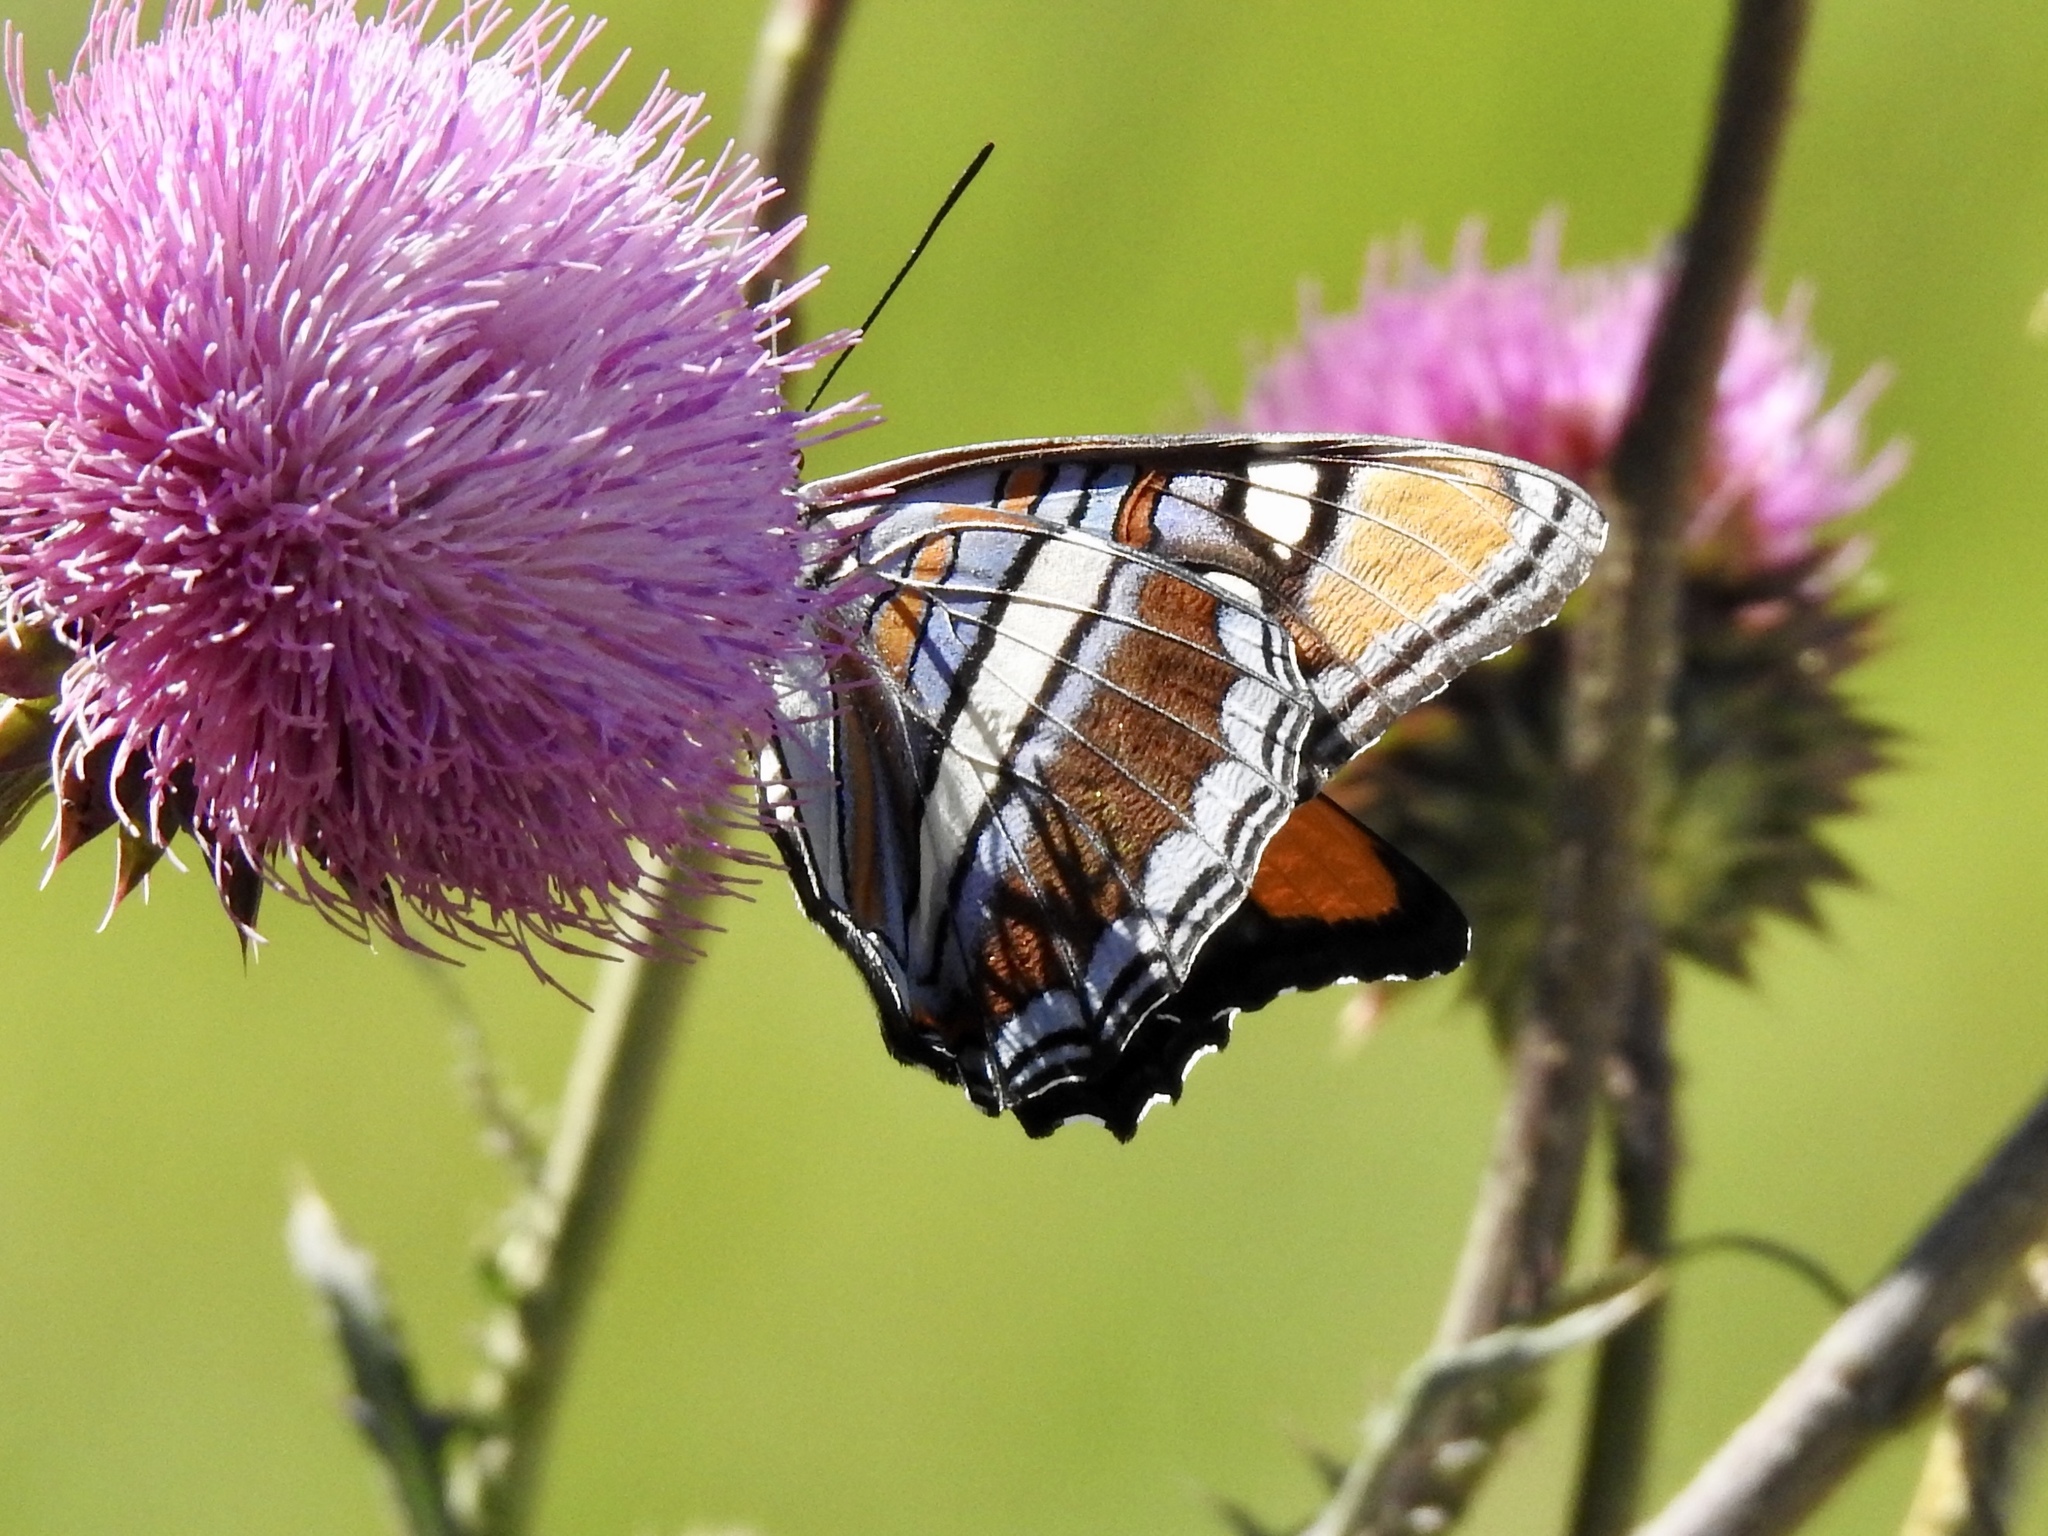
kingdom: Animalia
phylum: Arthropoda
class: Insecta
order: Lepidoptera
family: Nymphalidae
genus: Limenitis
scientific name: Limenitis bredowii
